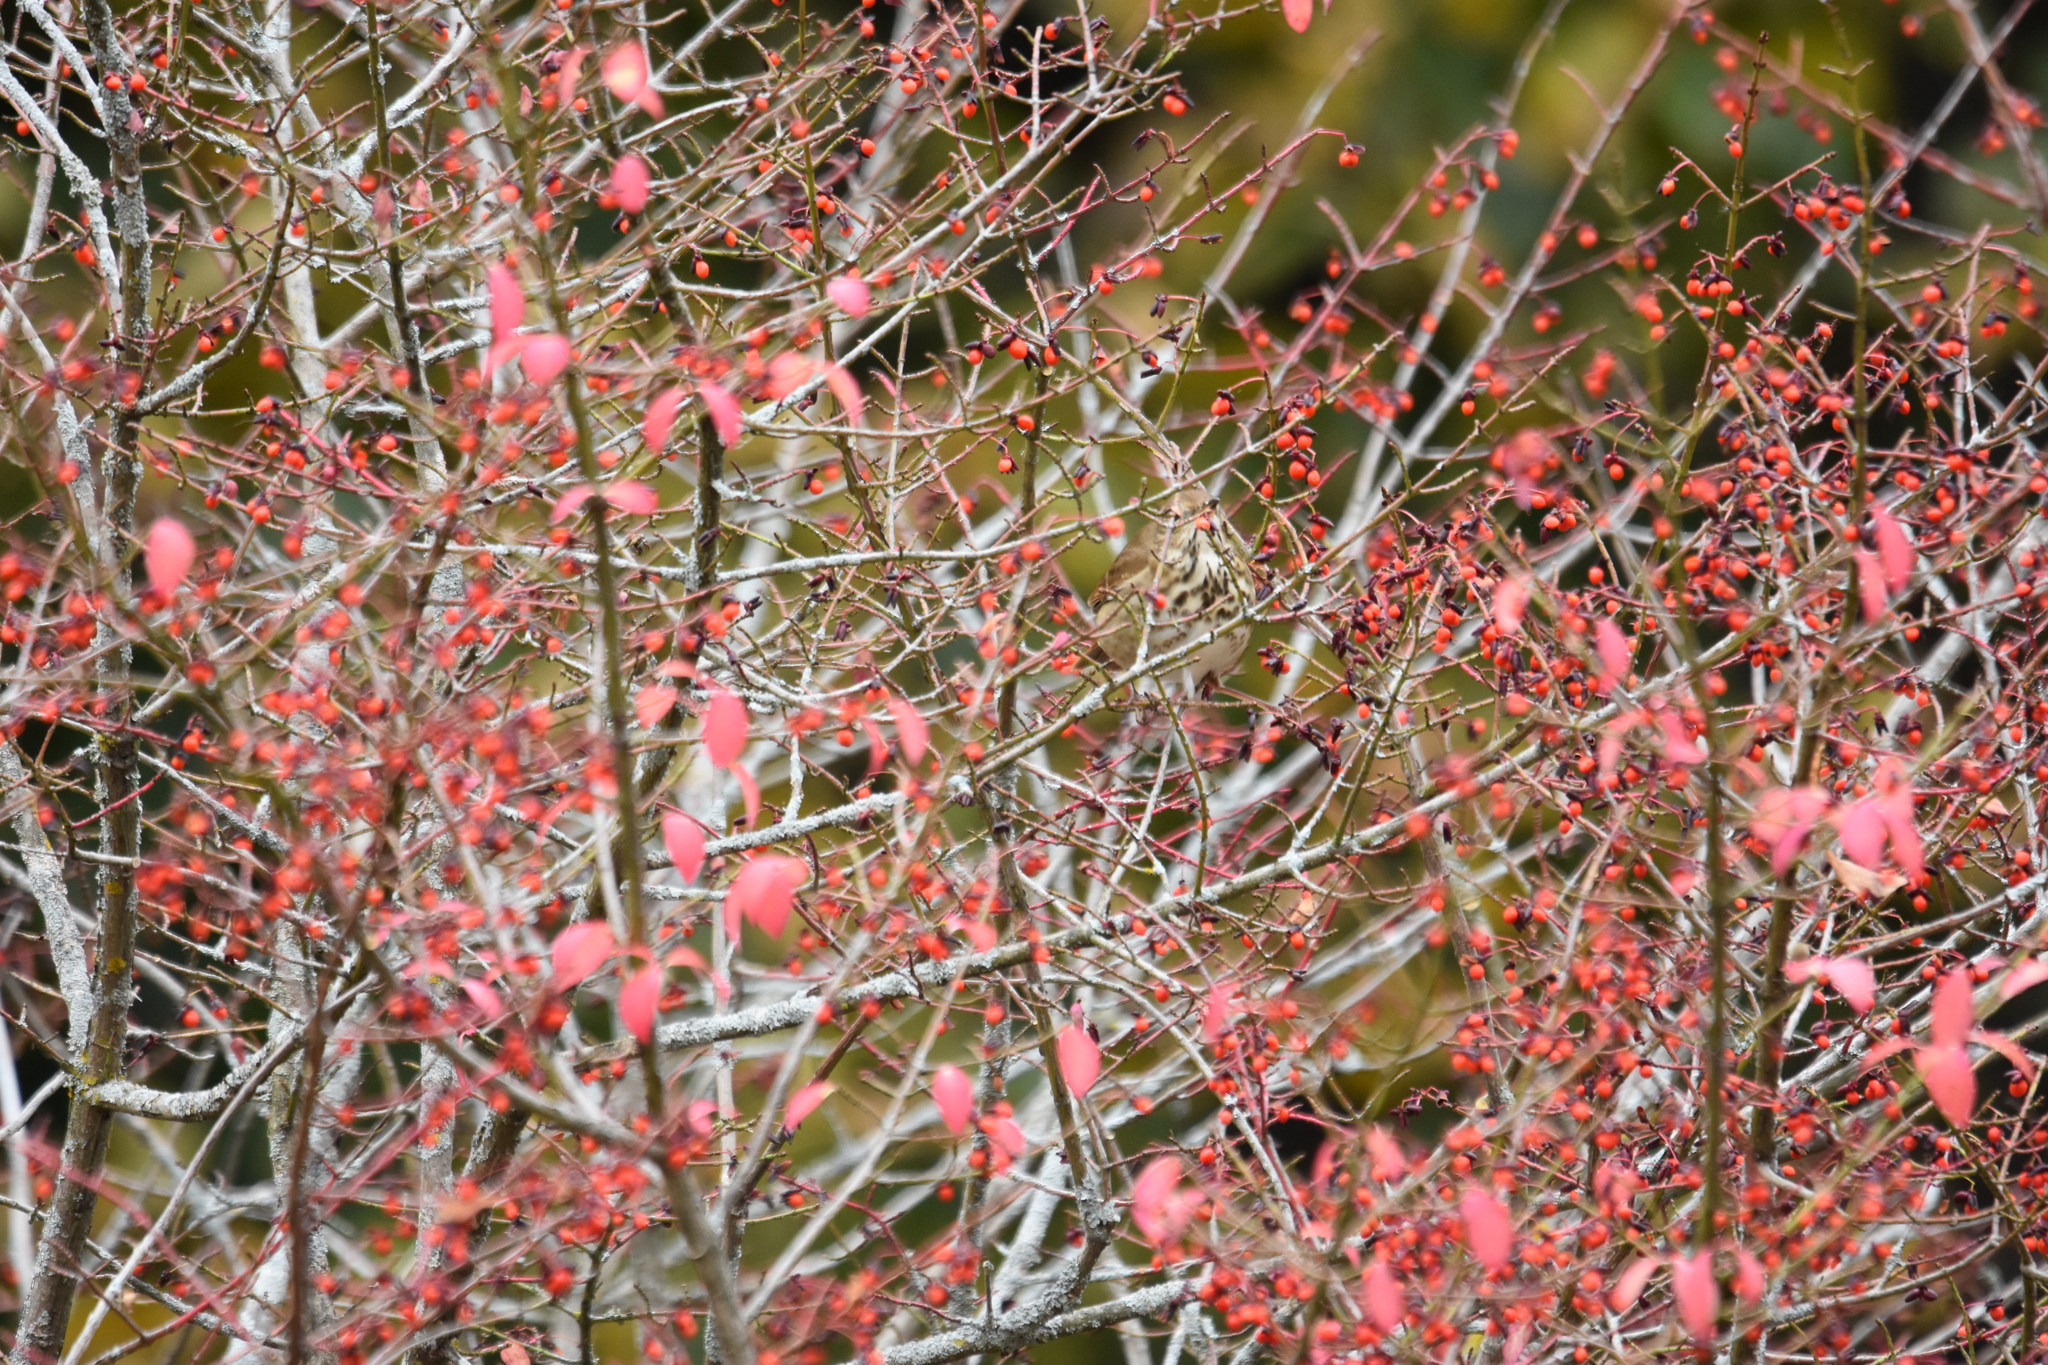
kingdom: Animalia
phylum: Chordata
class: Aves
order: Passeriformes
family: Turdidae
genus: Catharus
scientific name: Catharus guttatus
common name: Hermit thrush
